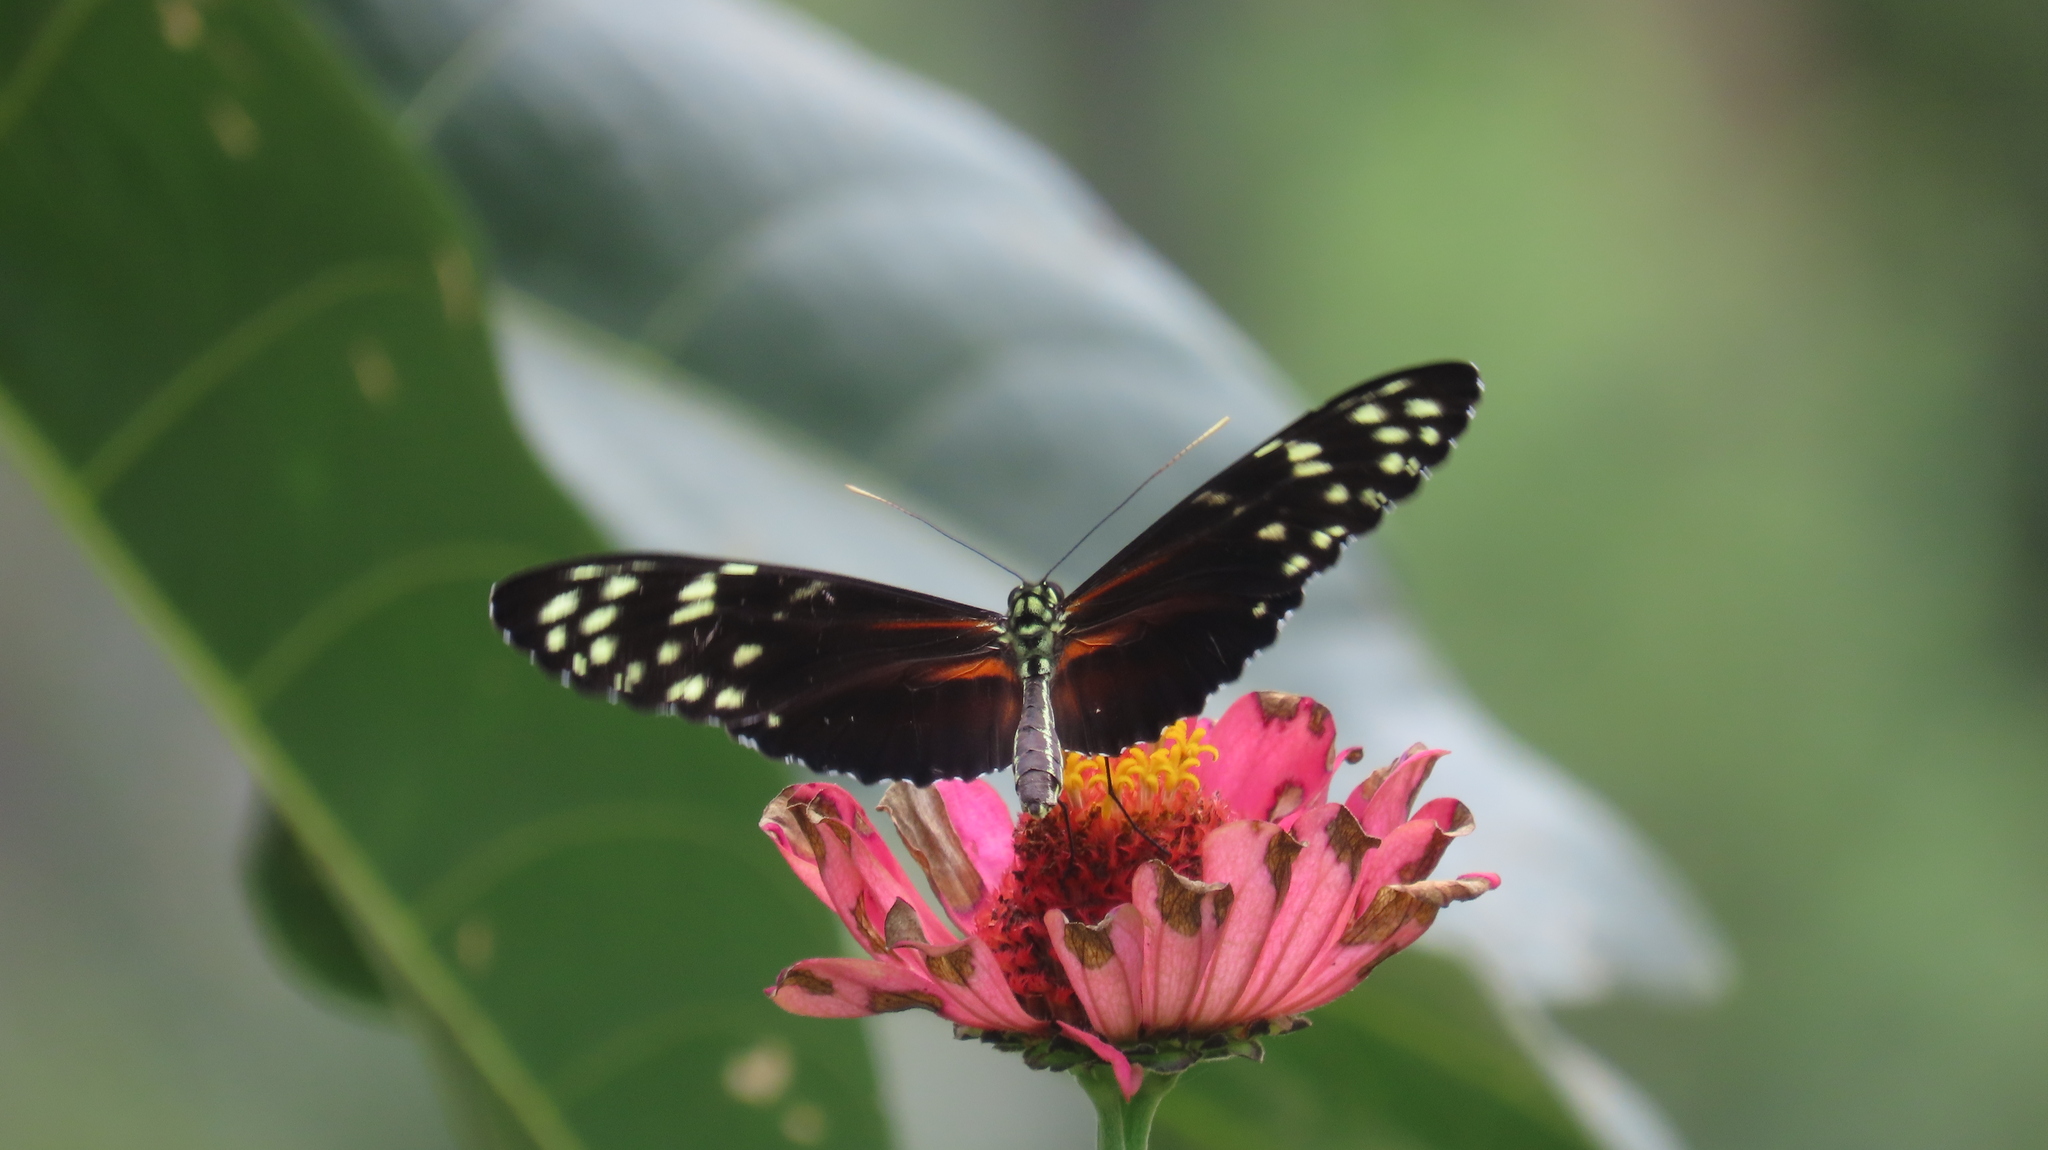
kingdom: Animalia
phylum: Arthropoda
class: Insecta
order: Lepidoptera
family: Nymphalidae
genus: Heliconius
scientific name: Heliconius hecale
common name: Tiger longwing
